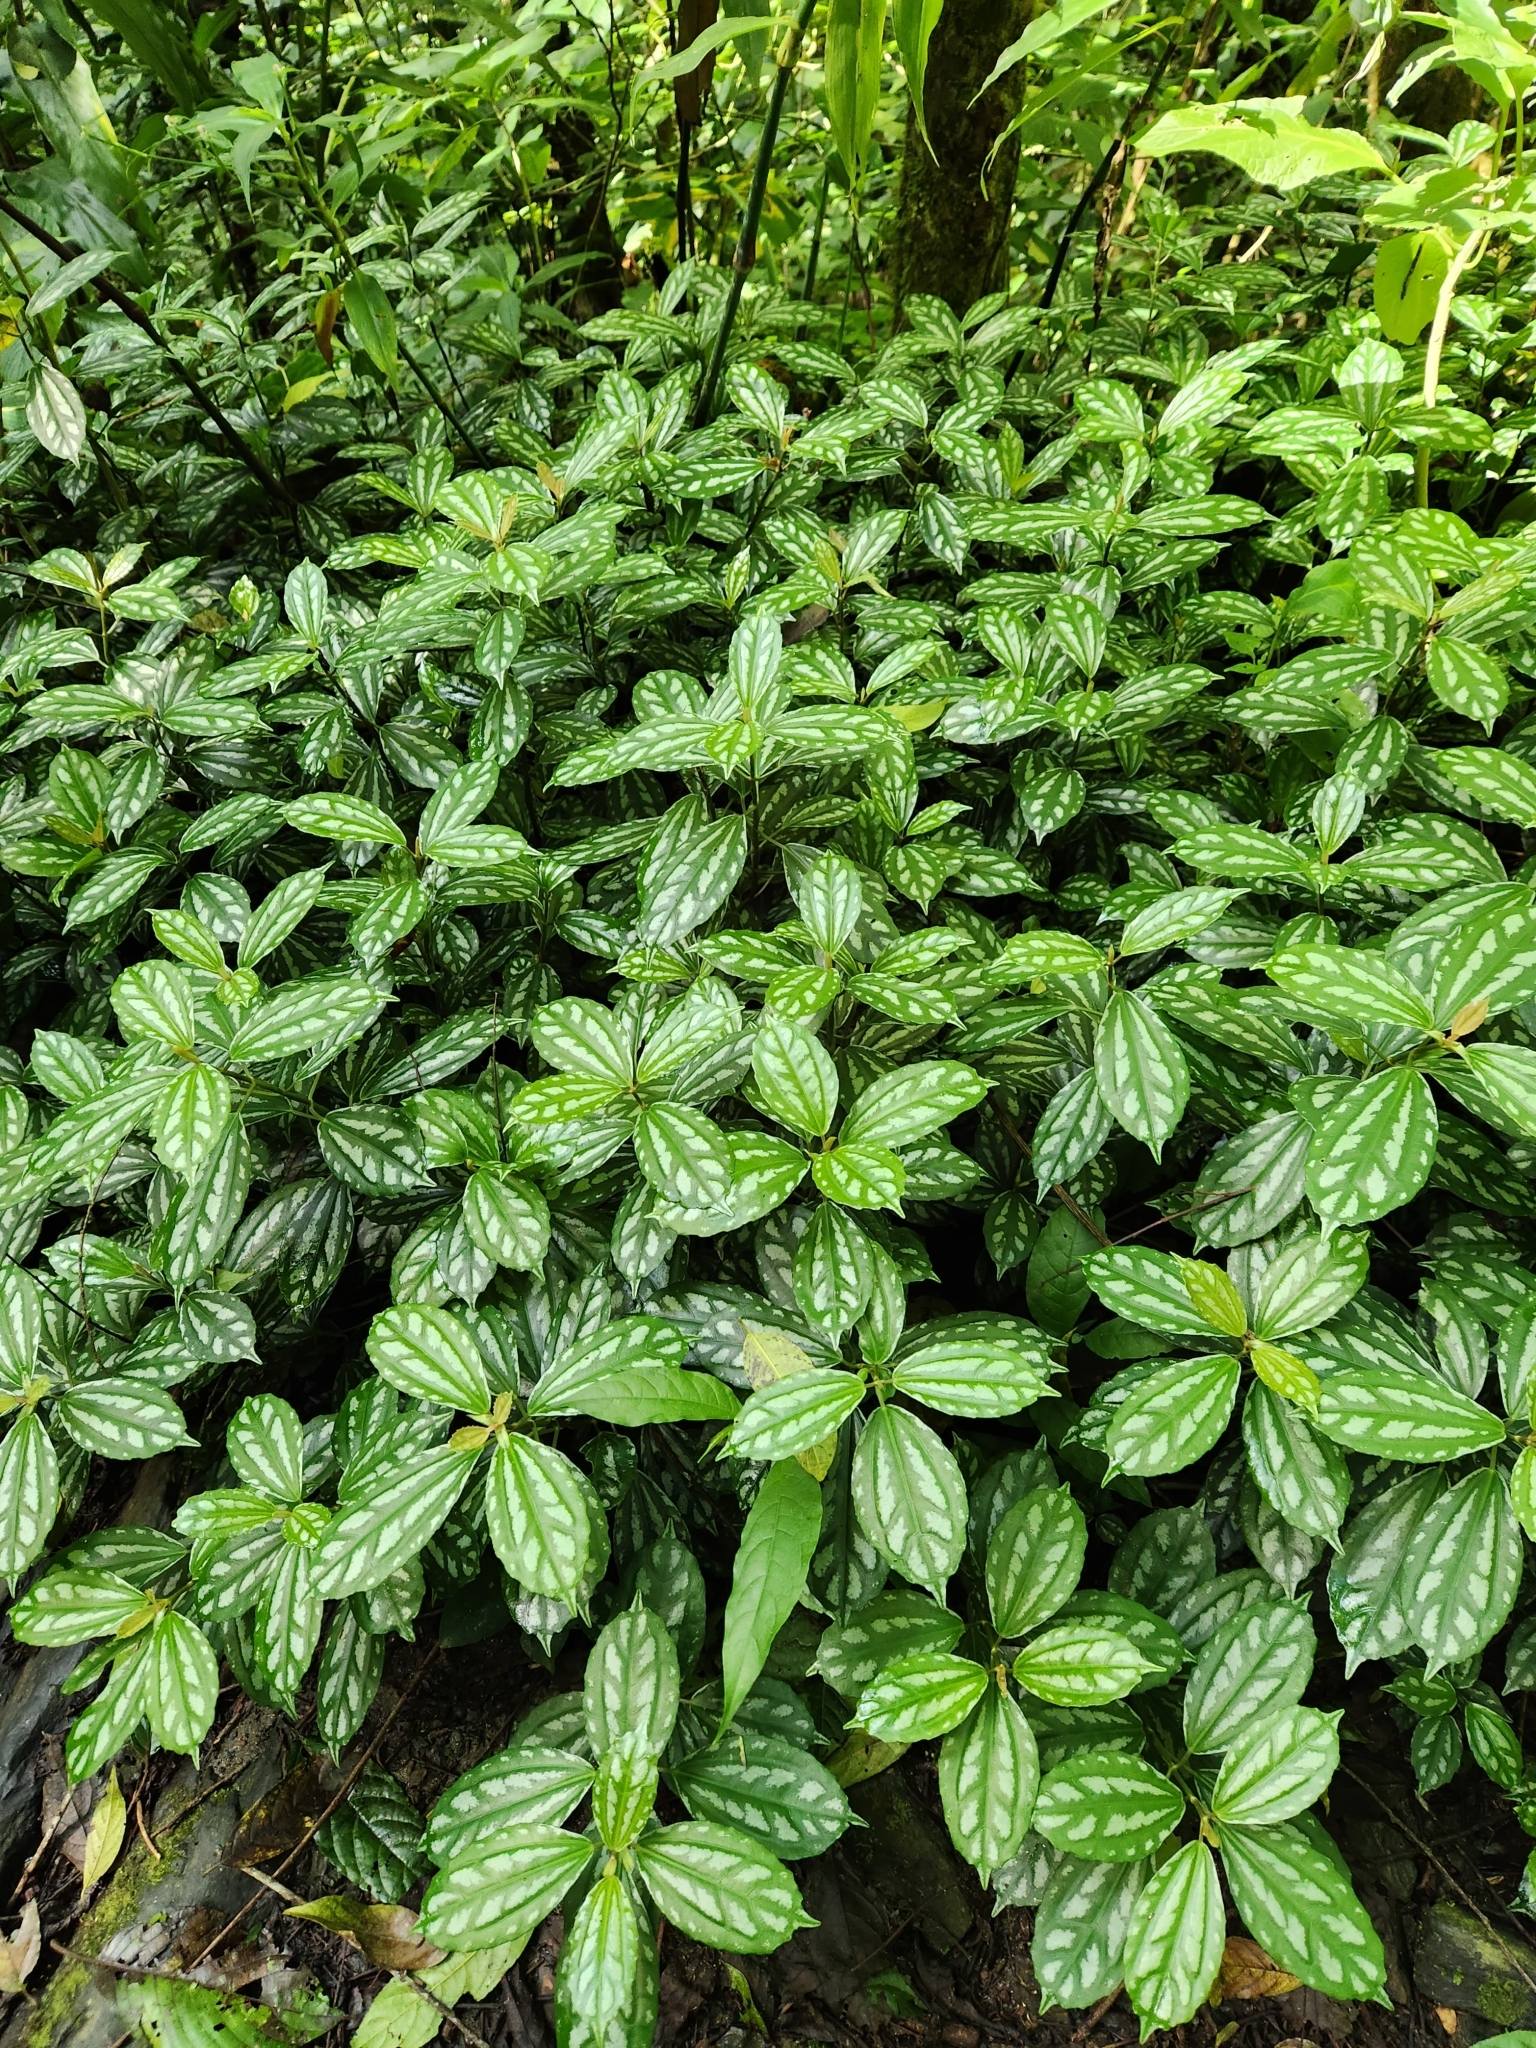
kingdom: Plantae
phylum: Tracheophyta
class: Magnoliopsida
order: Rosales
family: Urticaceae
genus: Pilea
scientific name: Pilea cadierei
